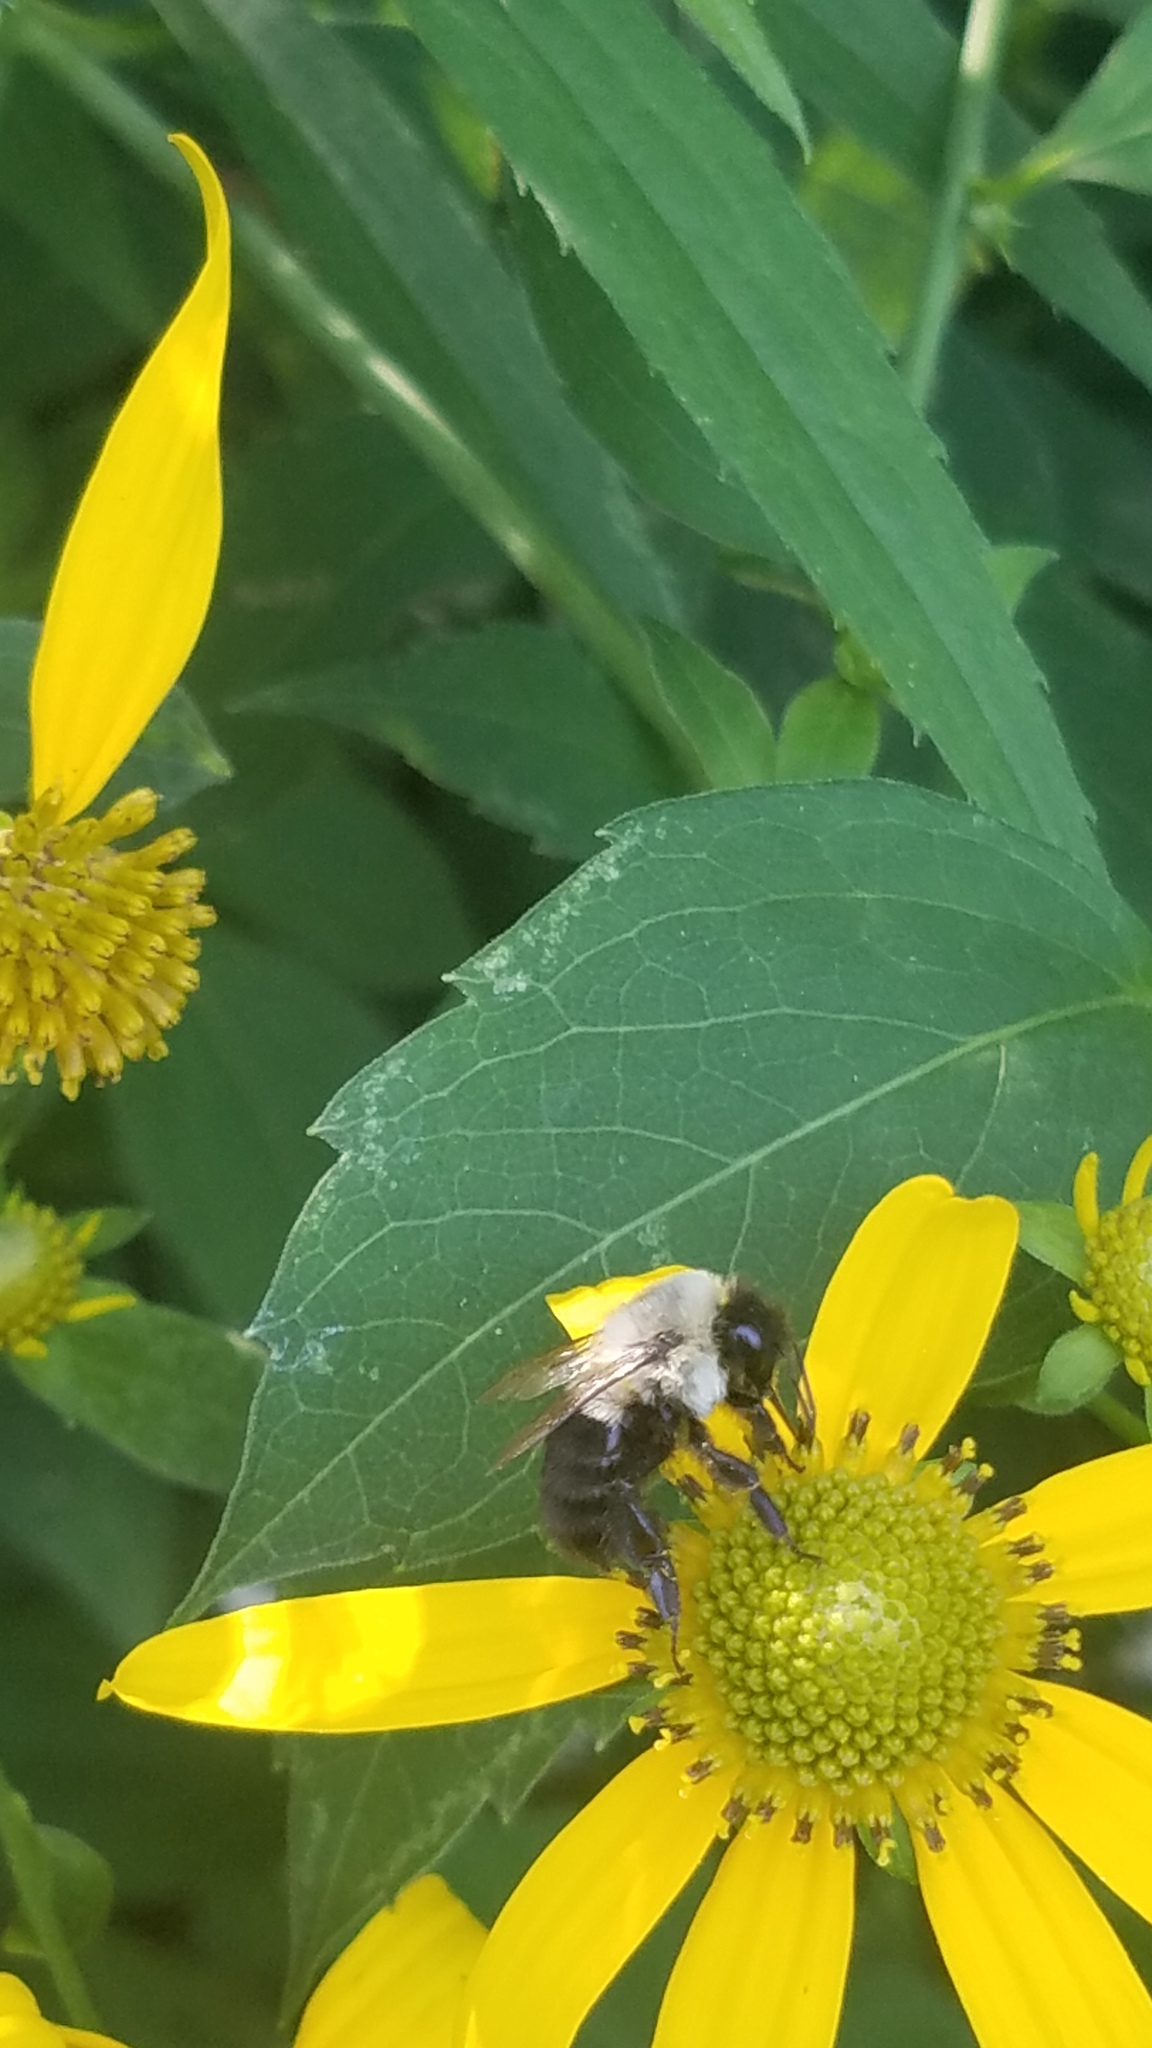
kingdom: Animalia
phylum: Arthropoda
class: Insecta
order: Hymenoptera
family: Apidae
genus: Bombus
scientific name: Bombus impatiens
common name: Common eastern bumble bee
